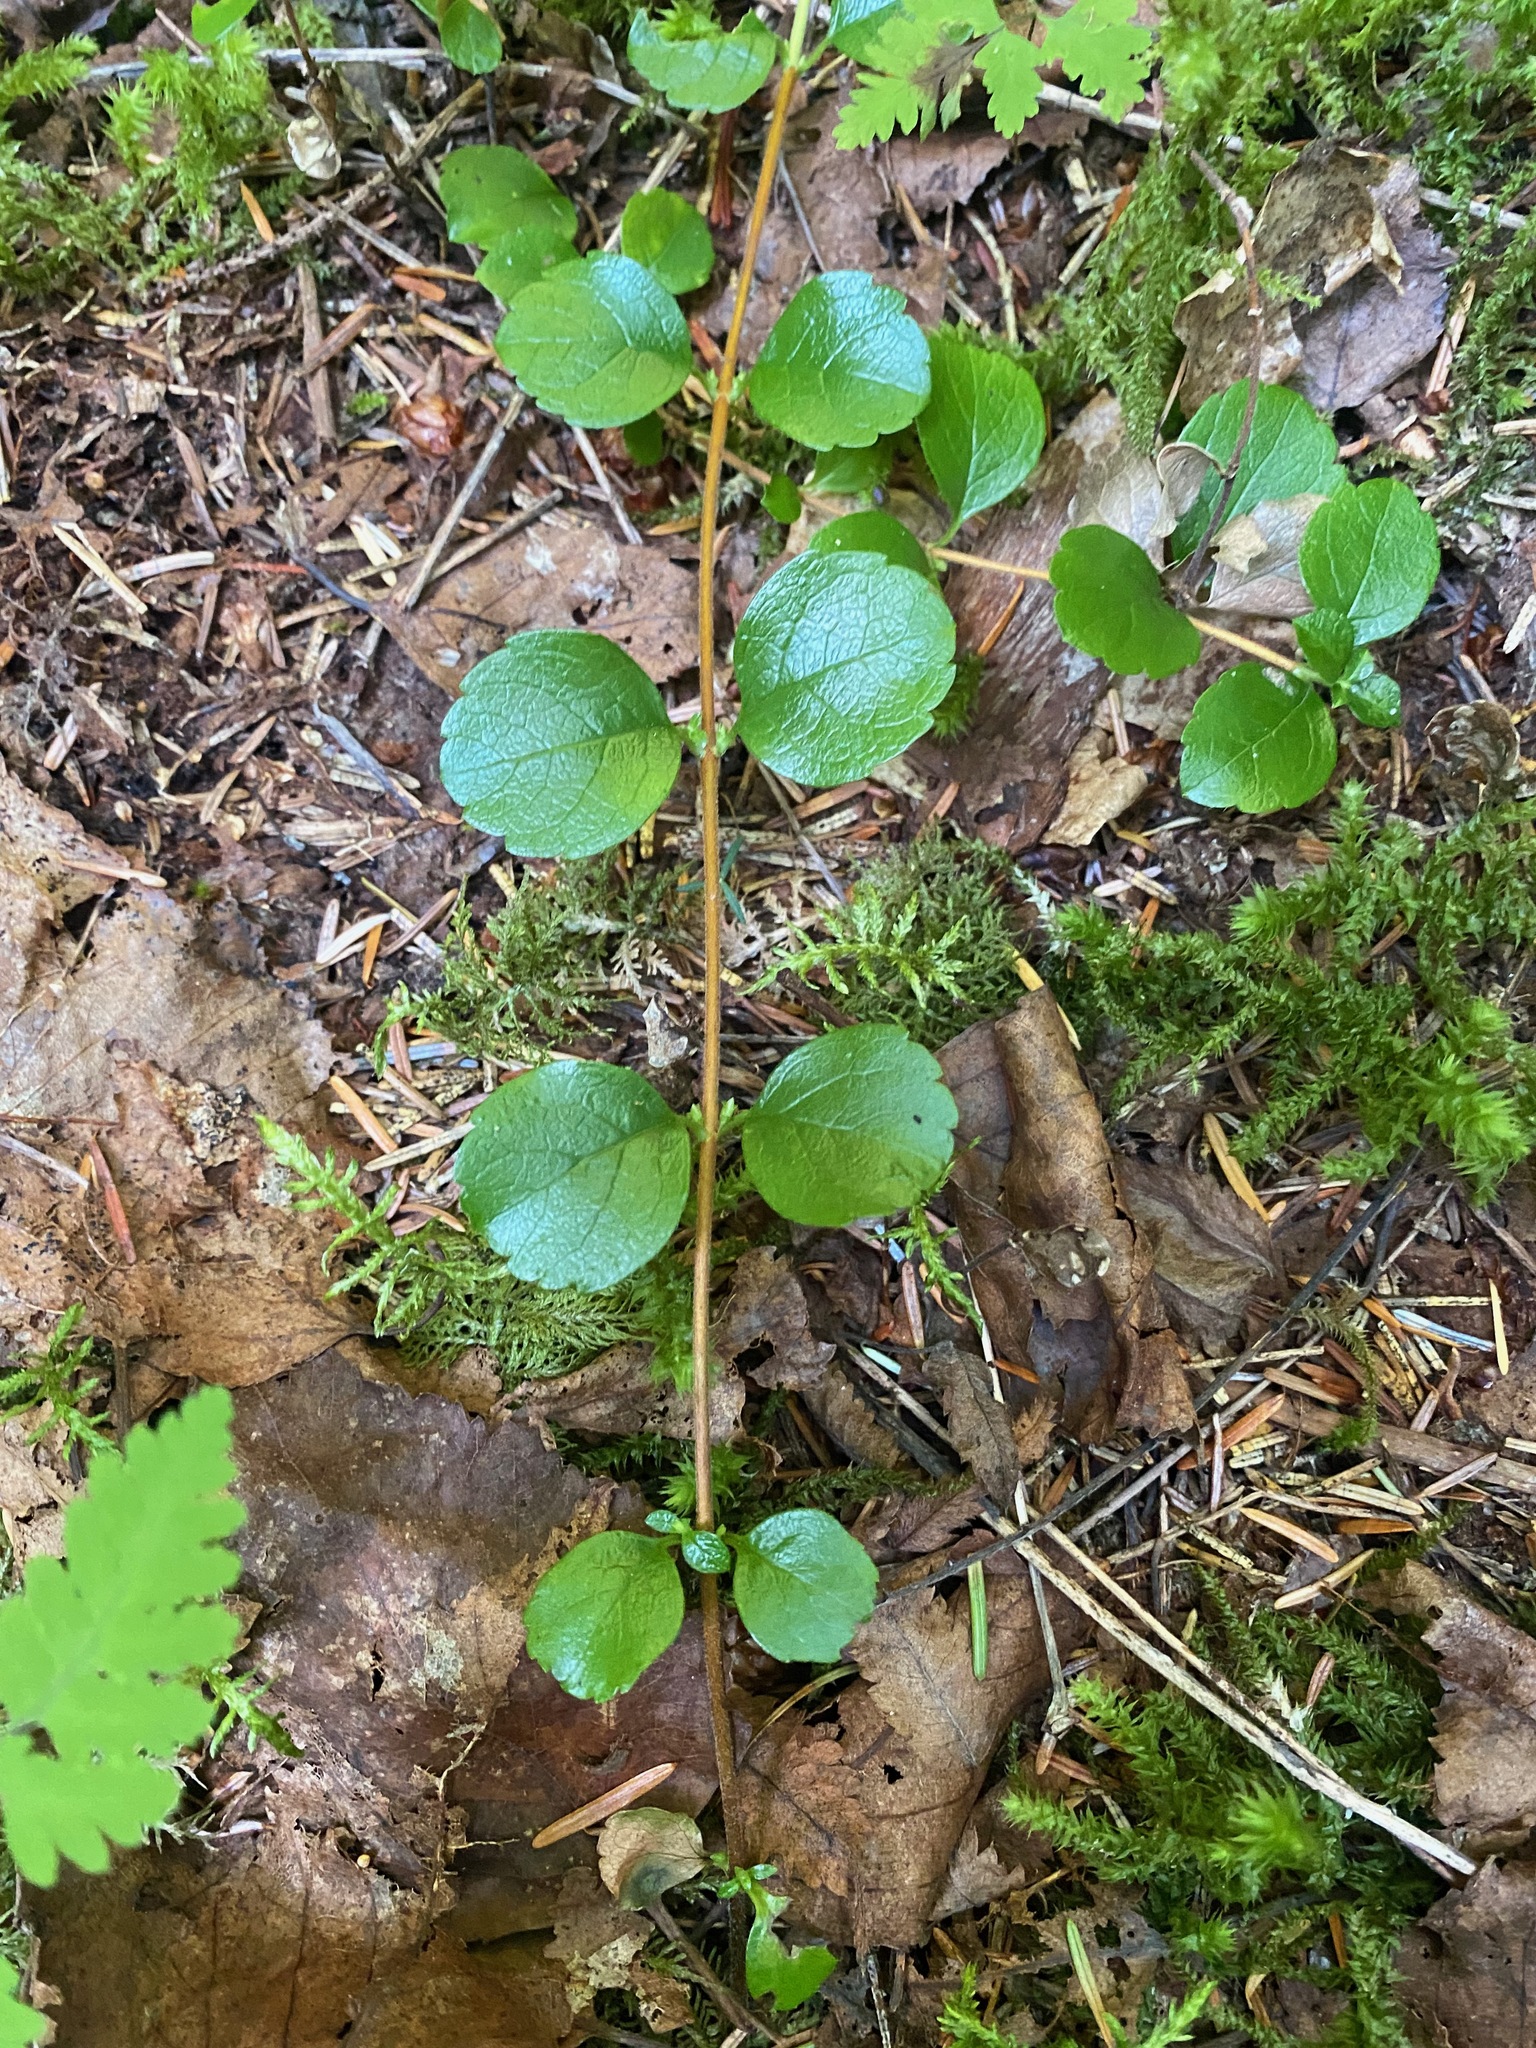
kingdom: Plantae
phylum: Tracheophyta
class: Magnoliopsida
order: Dipsacales
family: Caprifoliaceae
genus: Linnaea
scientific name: Linnaea borealis
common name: Twinflower
